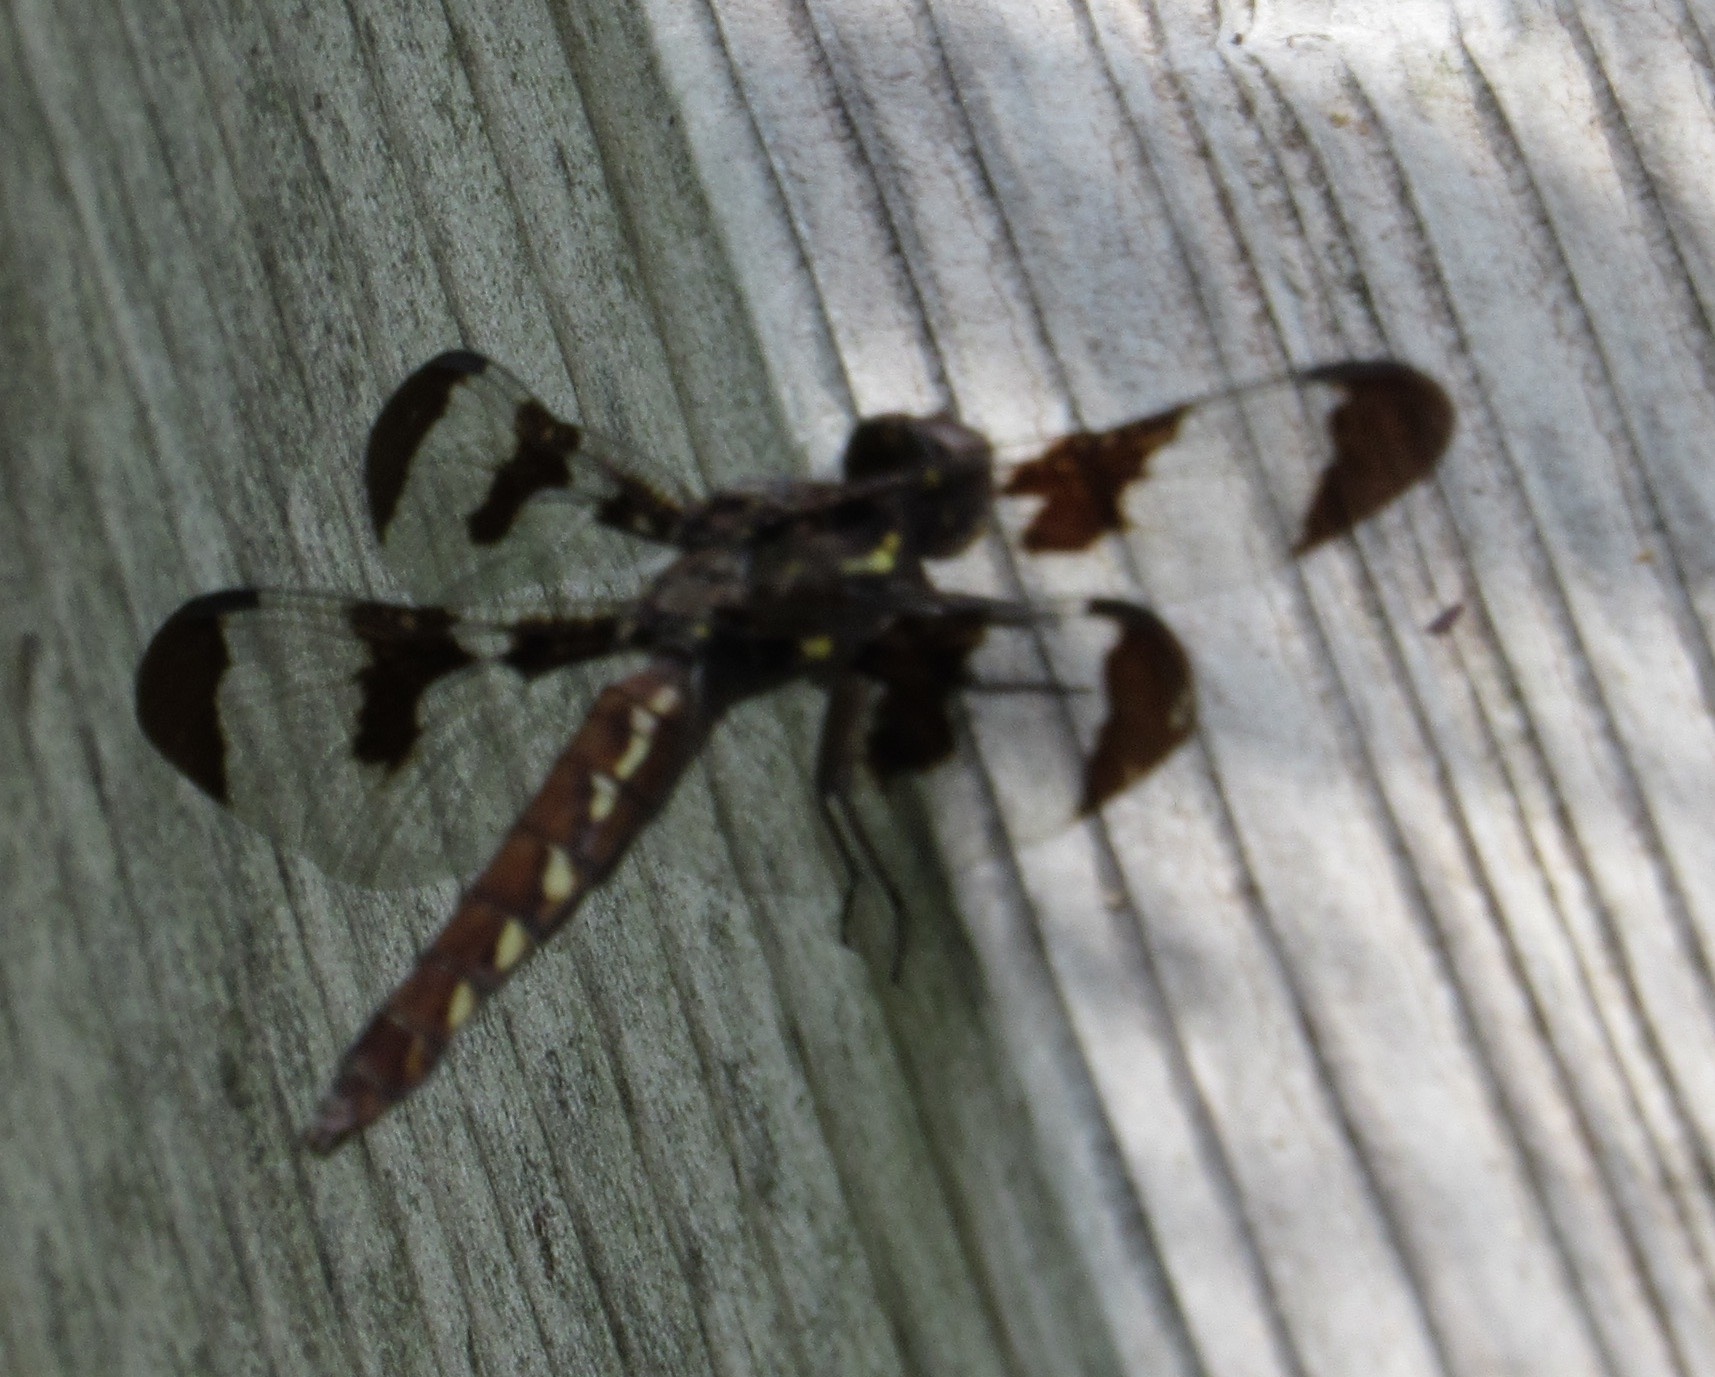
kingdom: Animalia
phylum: Arthropoda
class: Insecta
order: Odonata
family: Libellulidae
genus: Plathemis
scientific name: Plathemis lydia
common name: Common whitetail
